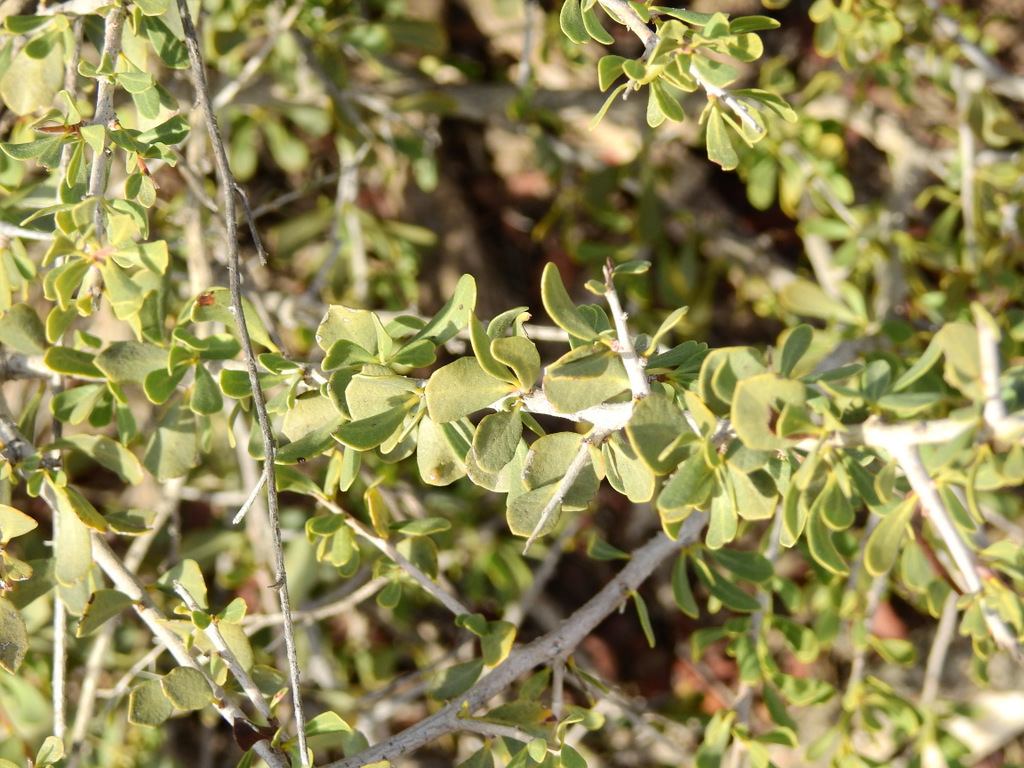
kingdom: Plantae
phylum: Tracheophyta
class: Magnoliopsida
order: Sapindales
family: Anacardiaceae
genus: Schinus
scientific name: Schinus johnstonii
